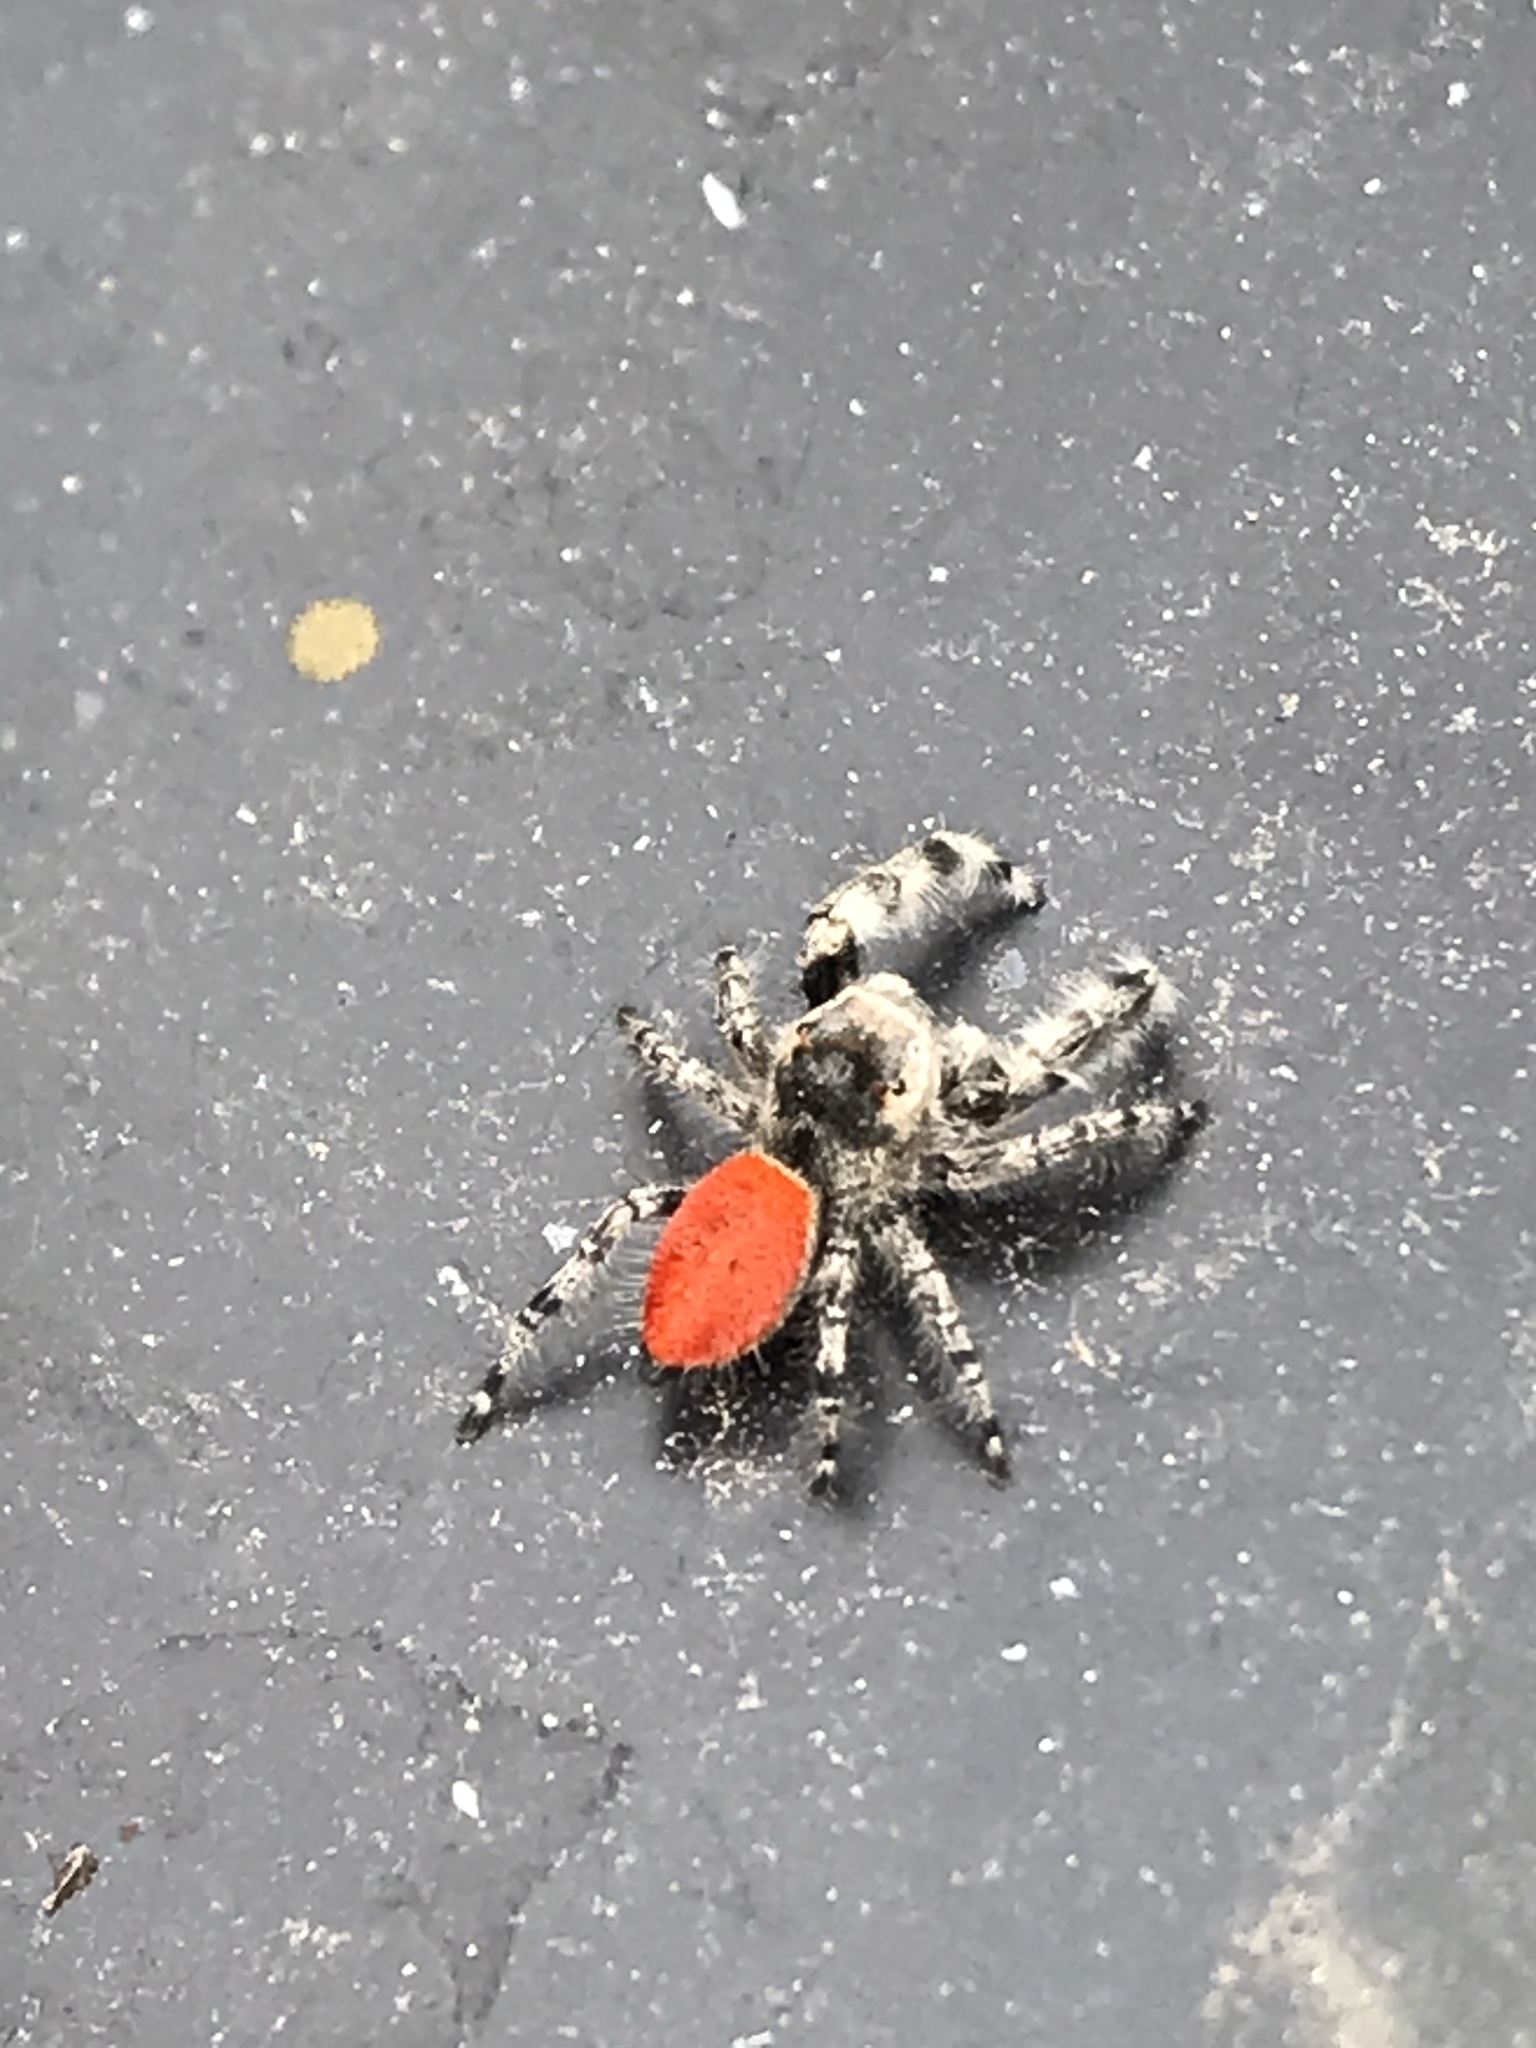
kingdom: Animalia
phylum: Arthropoda
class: Arachnida
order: Araneae
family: Salticidae
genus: Phidippus
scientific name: Phidippus adumbratus
